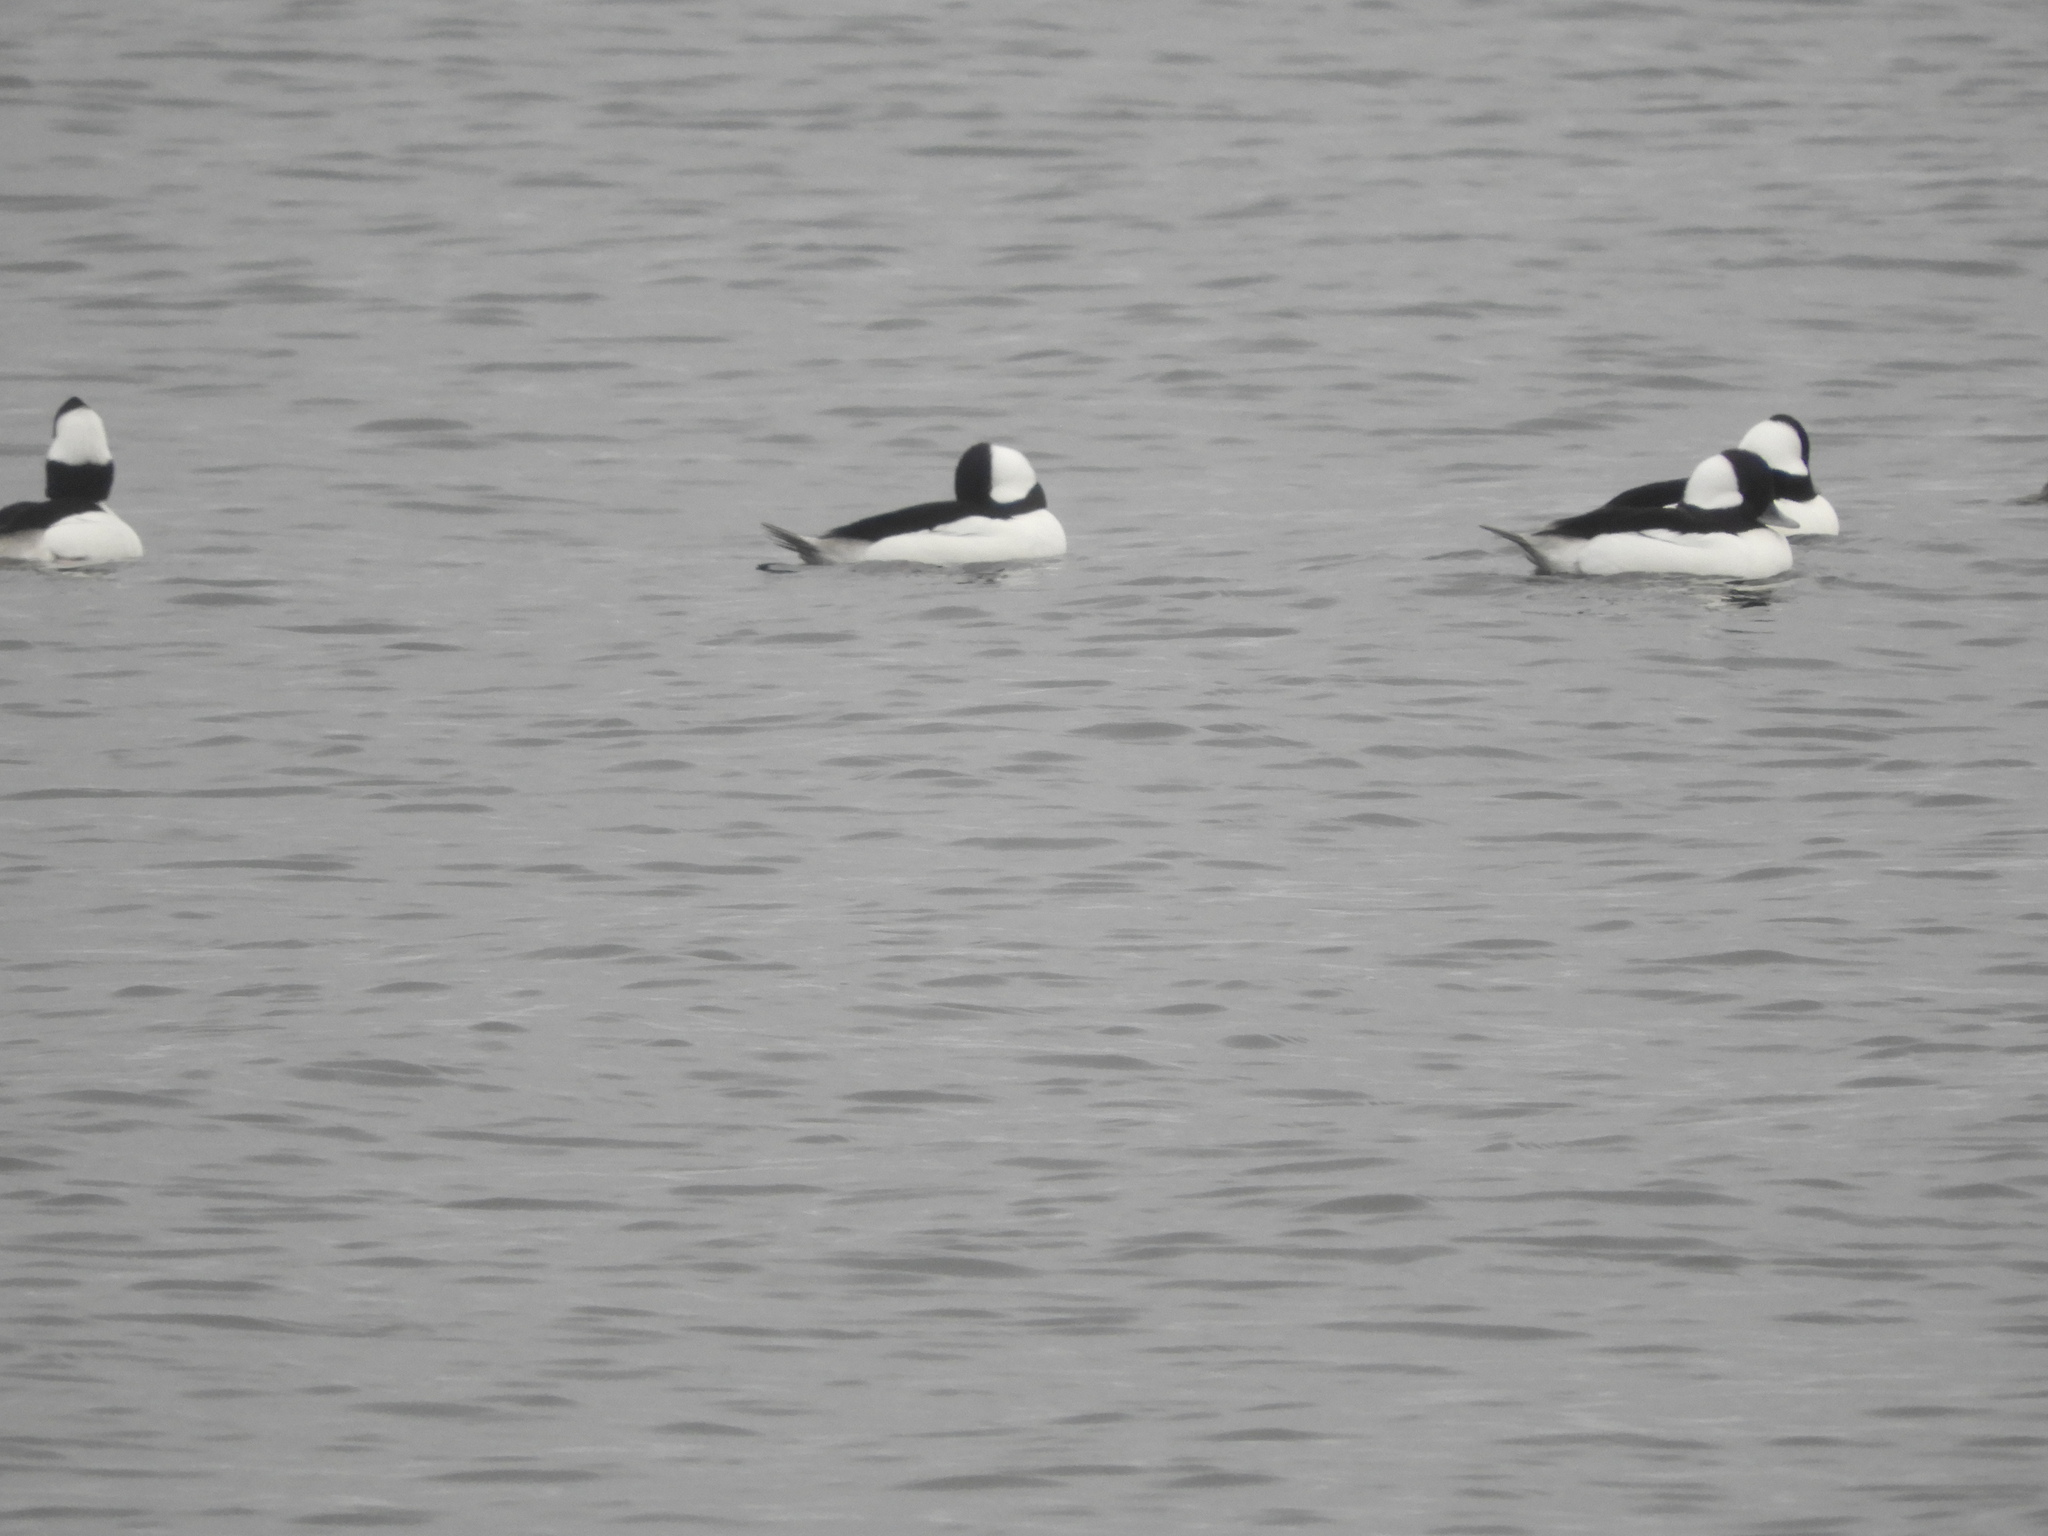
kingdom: Animalia
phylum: Chordata
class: Aves
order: Anseriformes
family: Anatidae
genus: Bucephala
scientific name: Bucephala albeola
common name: Bufflehead
